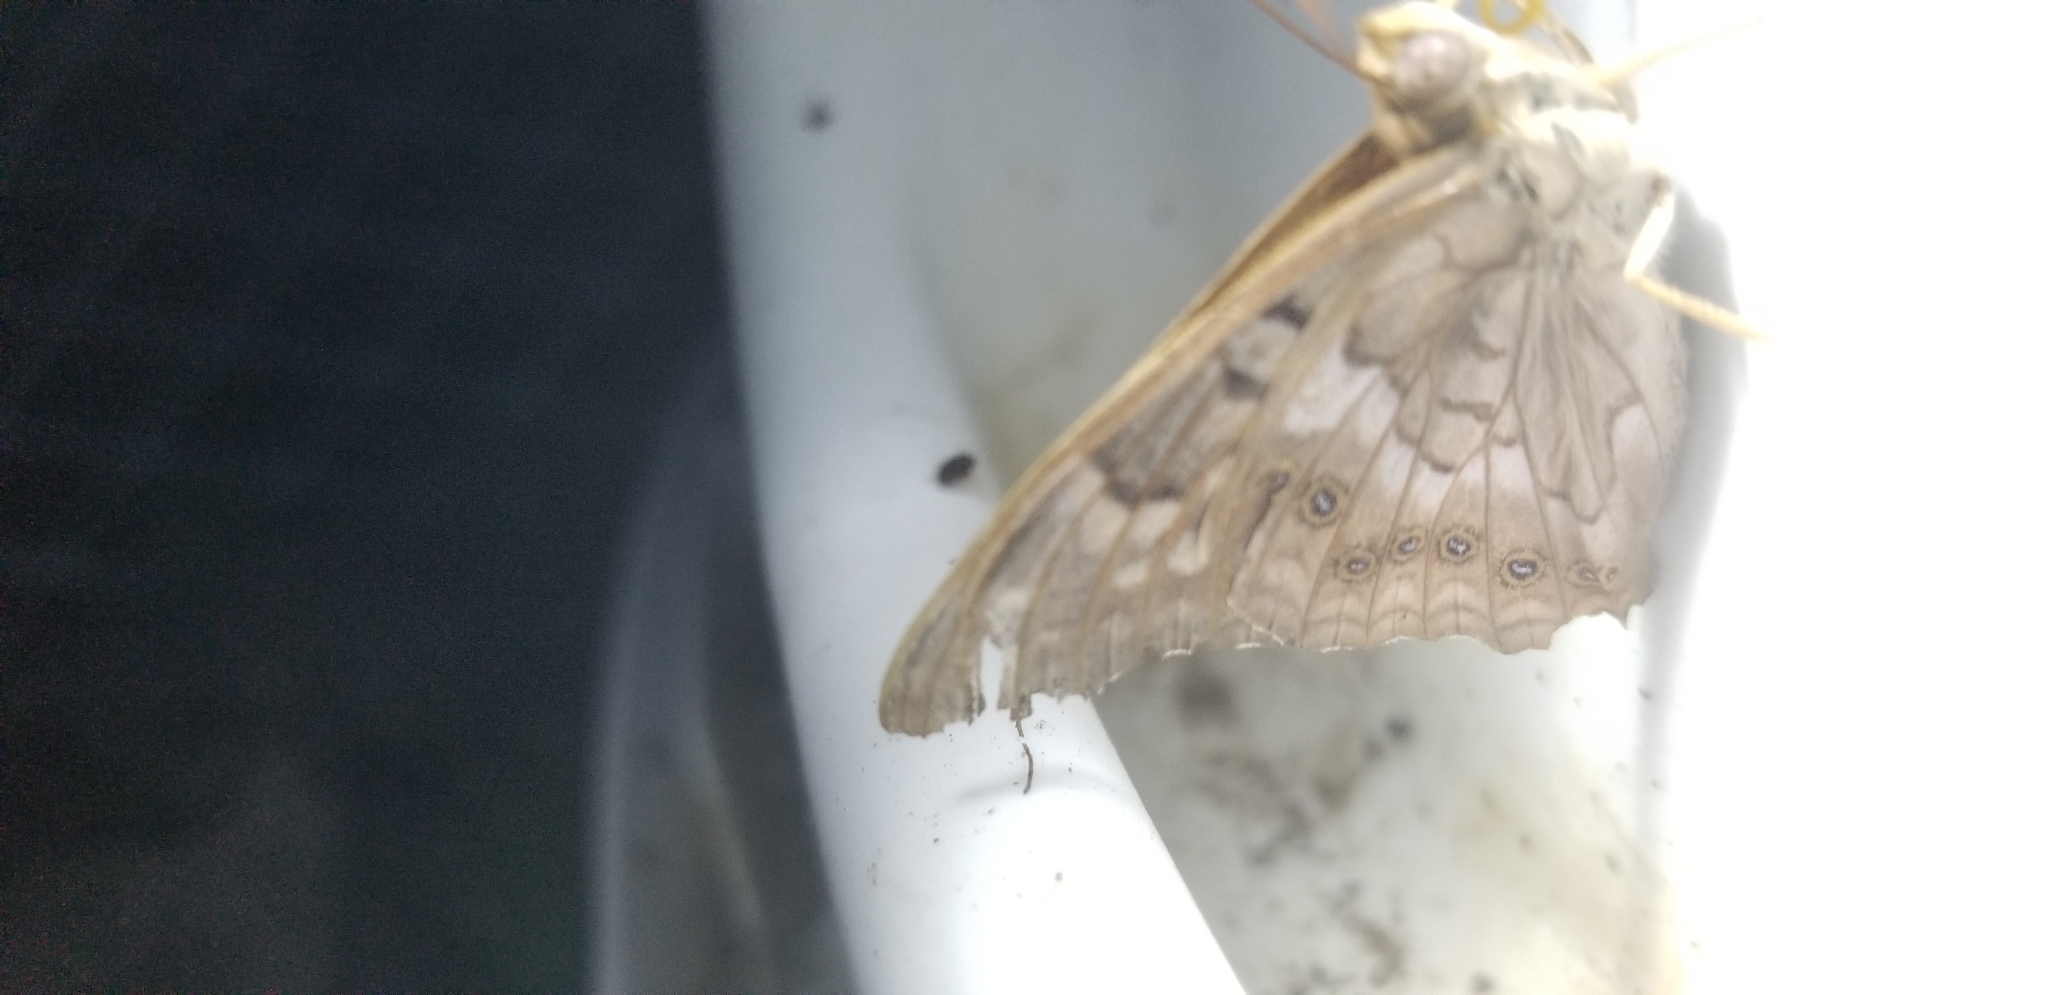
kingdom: Animalia
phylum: Arthropoda
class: Insecta
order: Lepidoptera
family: Nymphalidae
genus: Asterocampa
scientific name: Asterocampa clyton
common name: Tawny emperor
